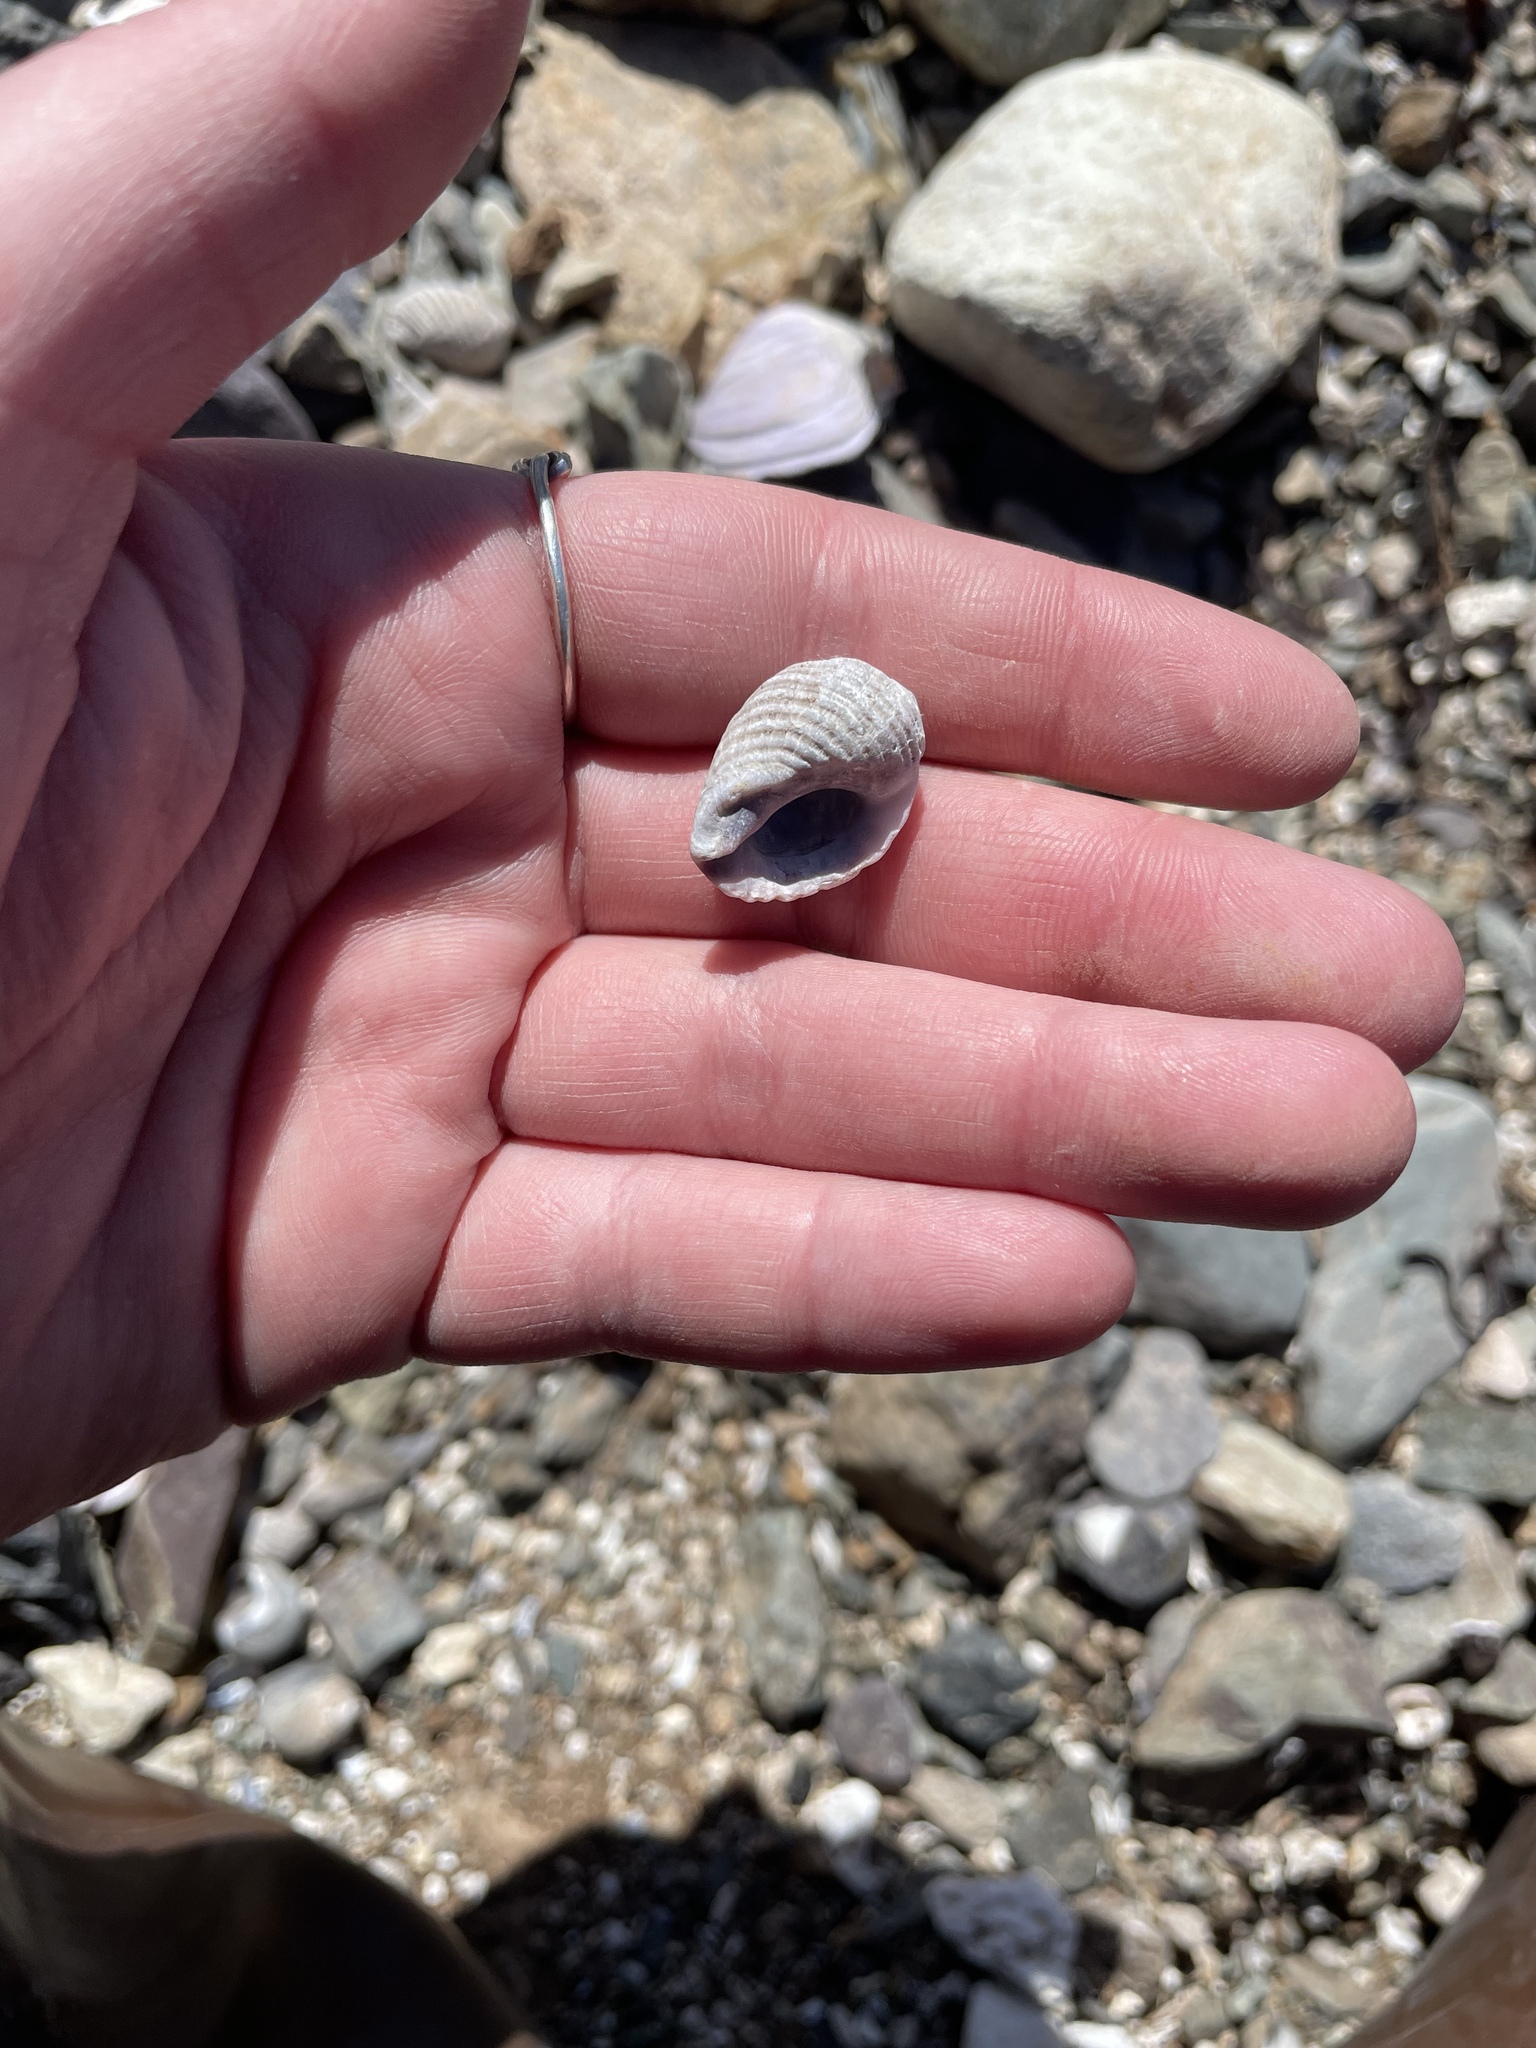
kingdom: Animalia
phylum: Mollusca
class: Gastropoda
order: Neogastropoda
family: Muricidae
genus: Nucella
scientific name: Nucella lapillus
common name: Dog whelk
